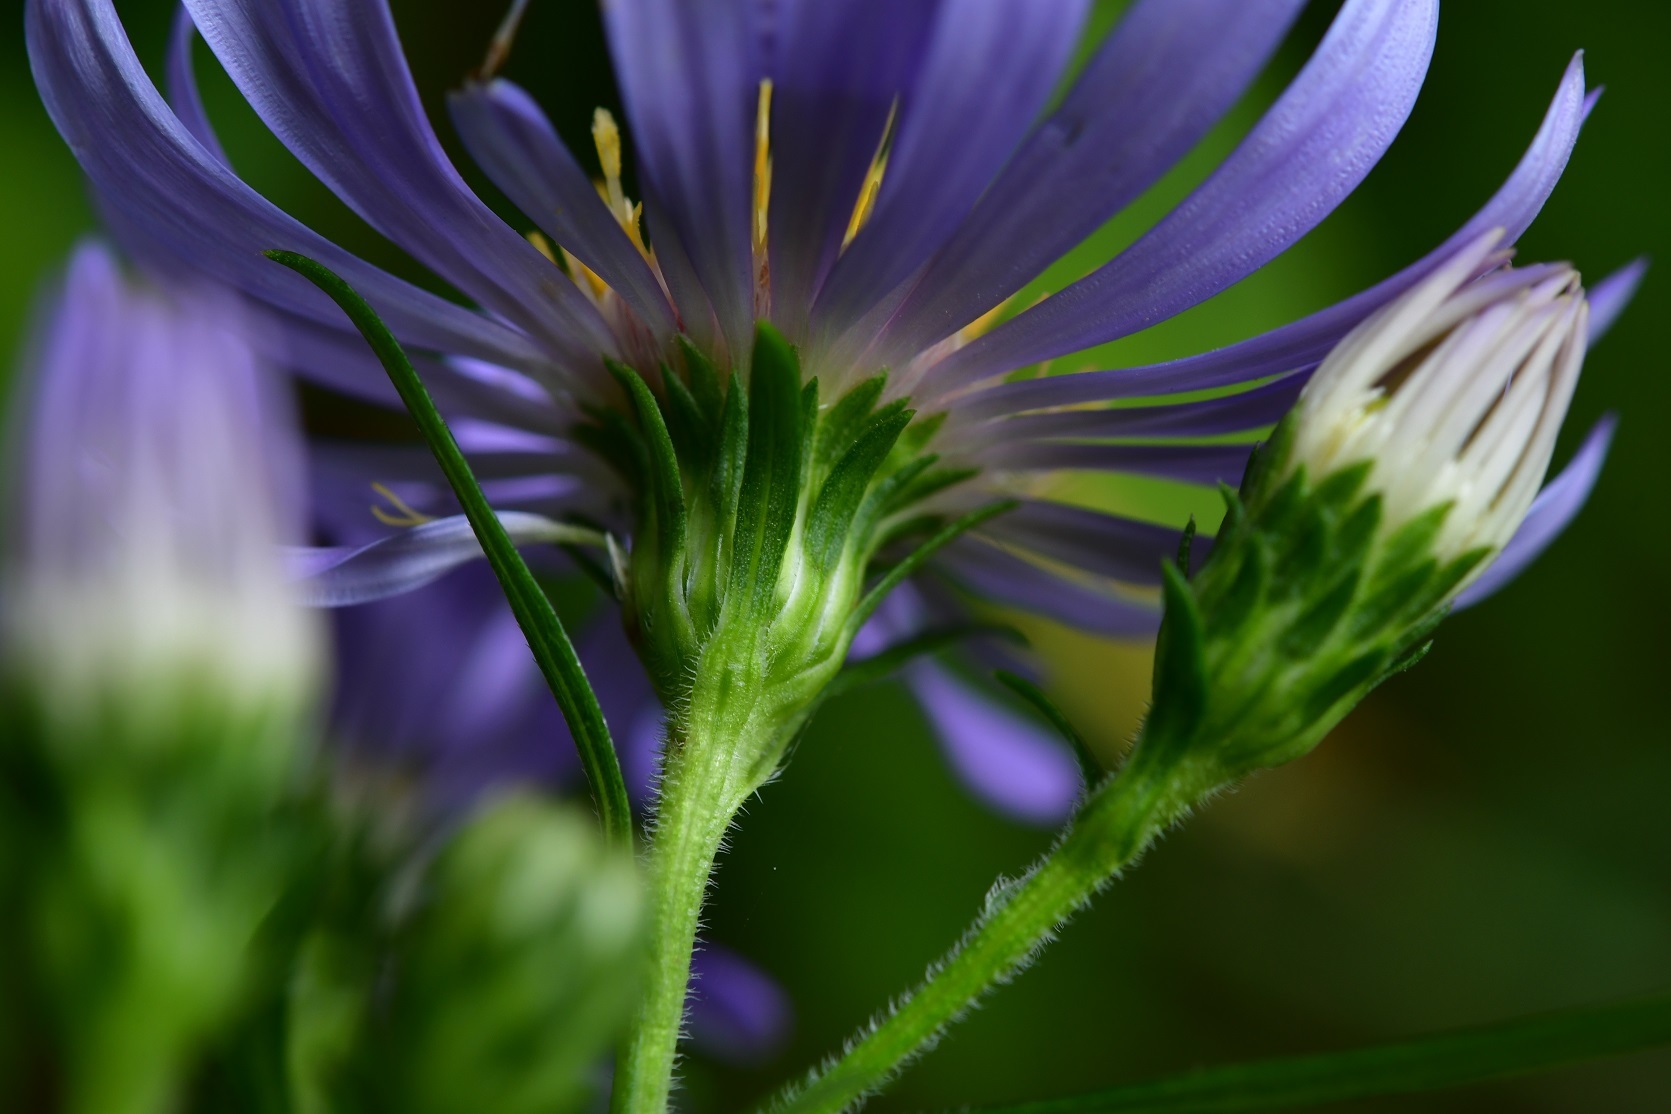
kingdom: Plantae
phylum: Tracheophyta
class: Magnoliopsida
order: Asterales
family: Asteraceae
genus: Symphyotrichum
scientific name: Symphyotrichum laeve
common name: Glaucous aster
